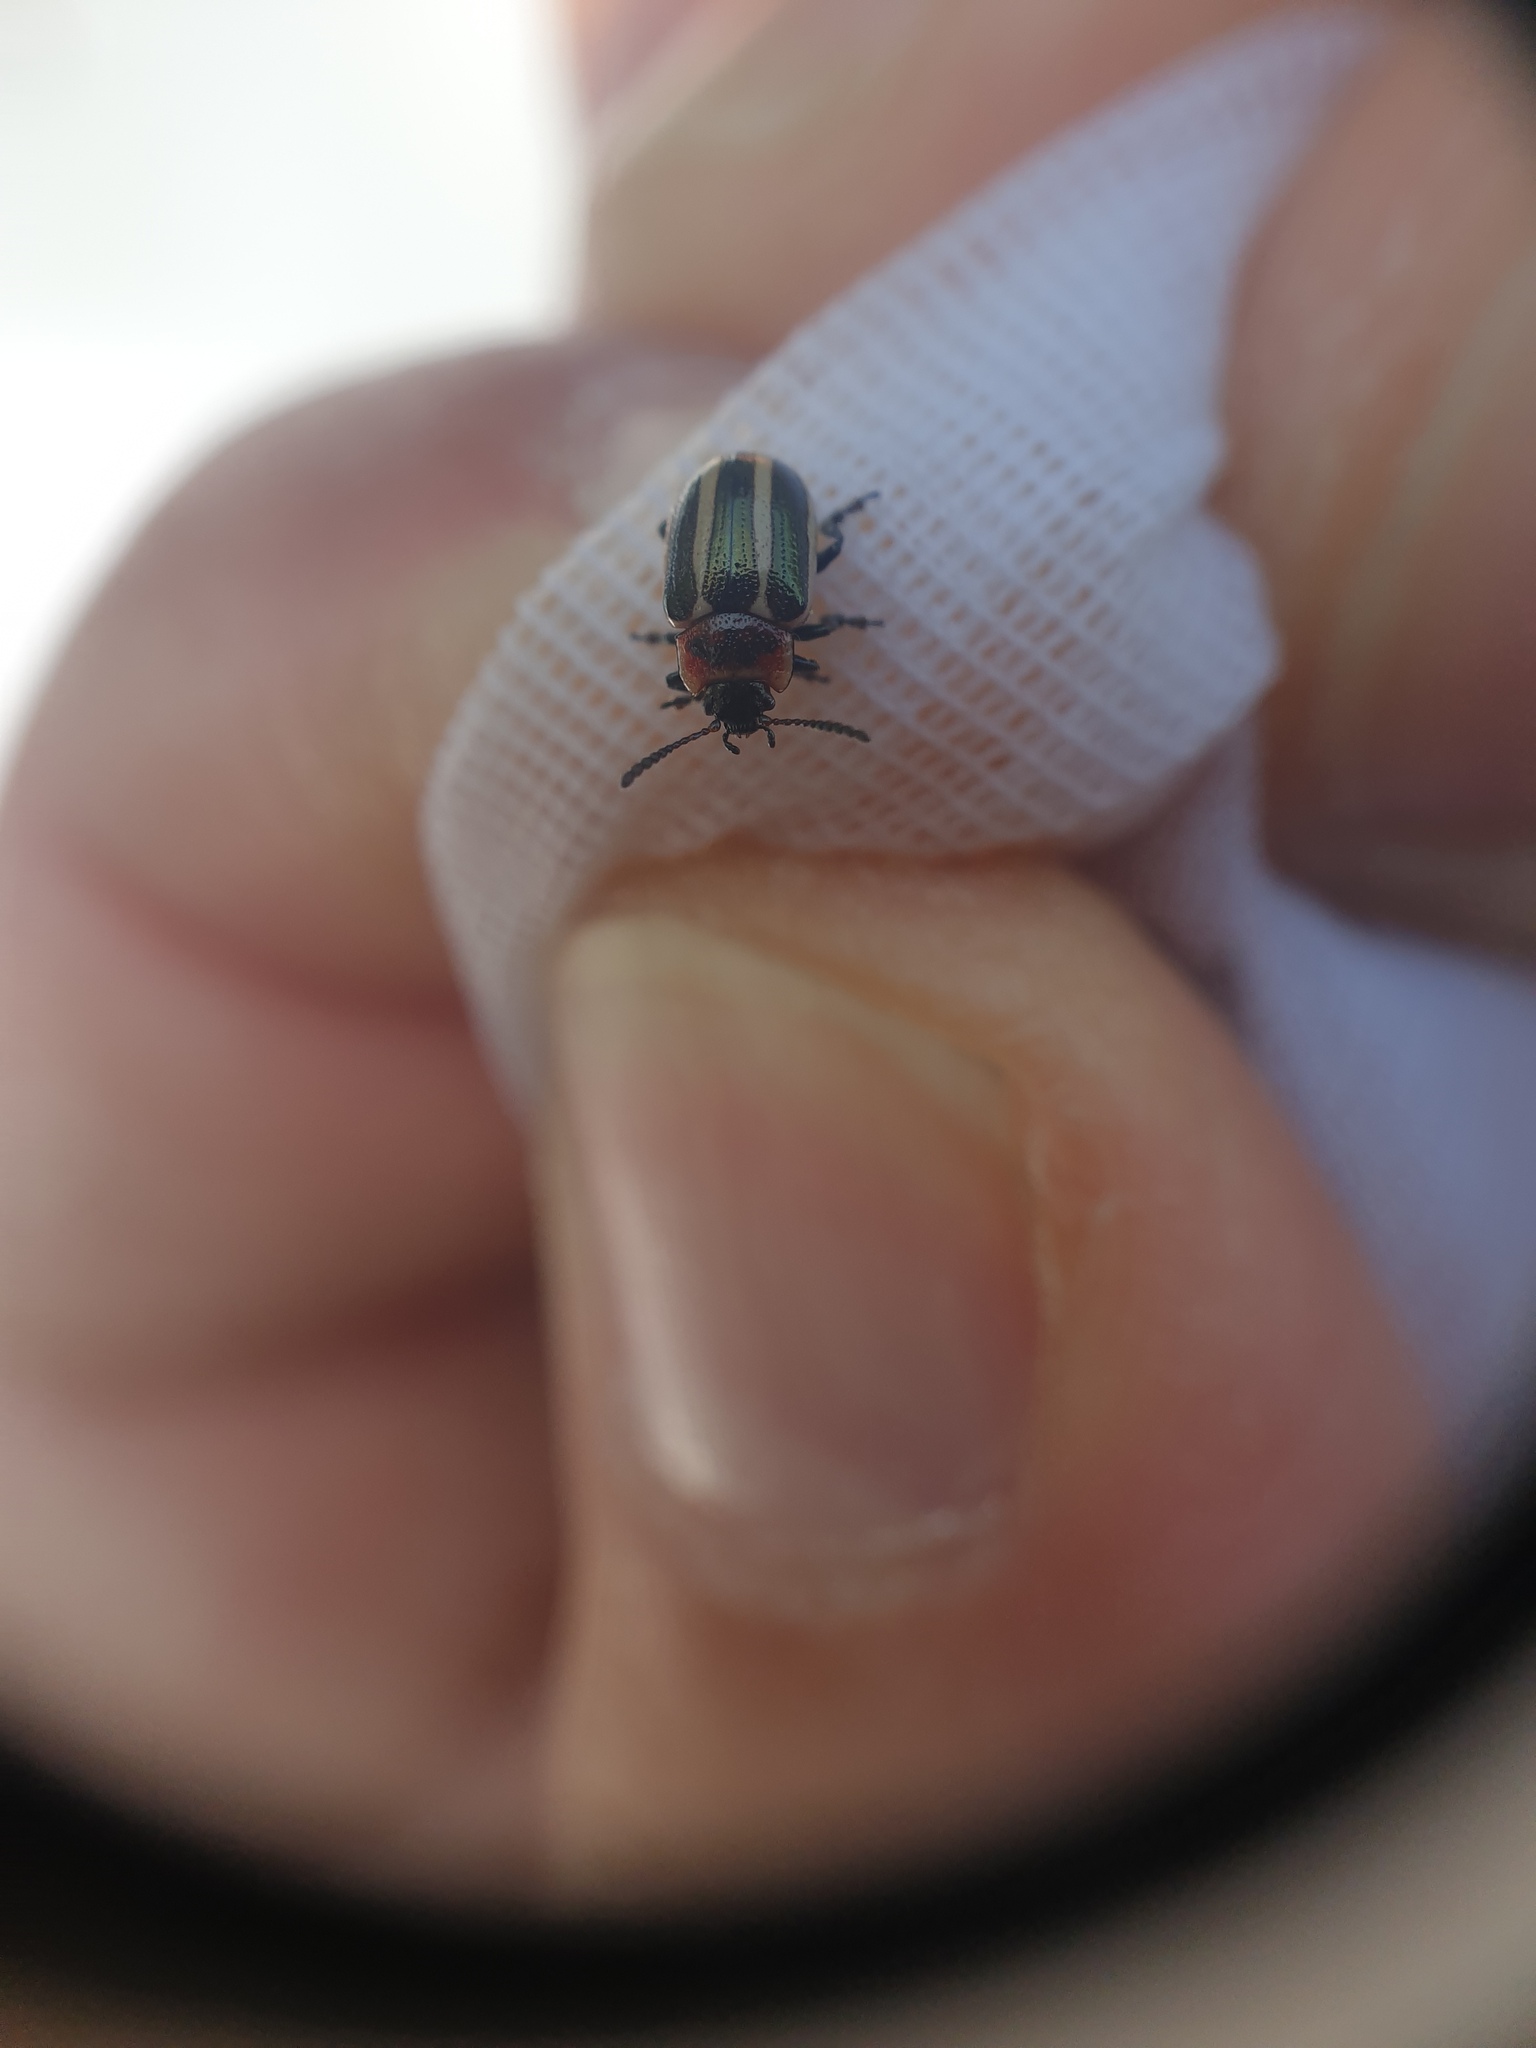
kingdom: Animalia
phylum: Arthropoda
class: Insecta
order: Coleoptera
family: Chrysomelidae
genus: Calligrapha
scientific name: Calligrapha californica
